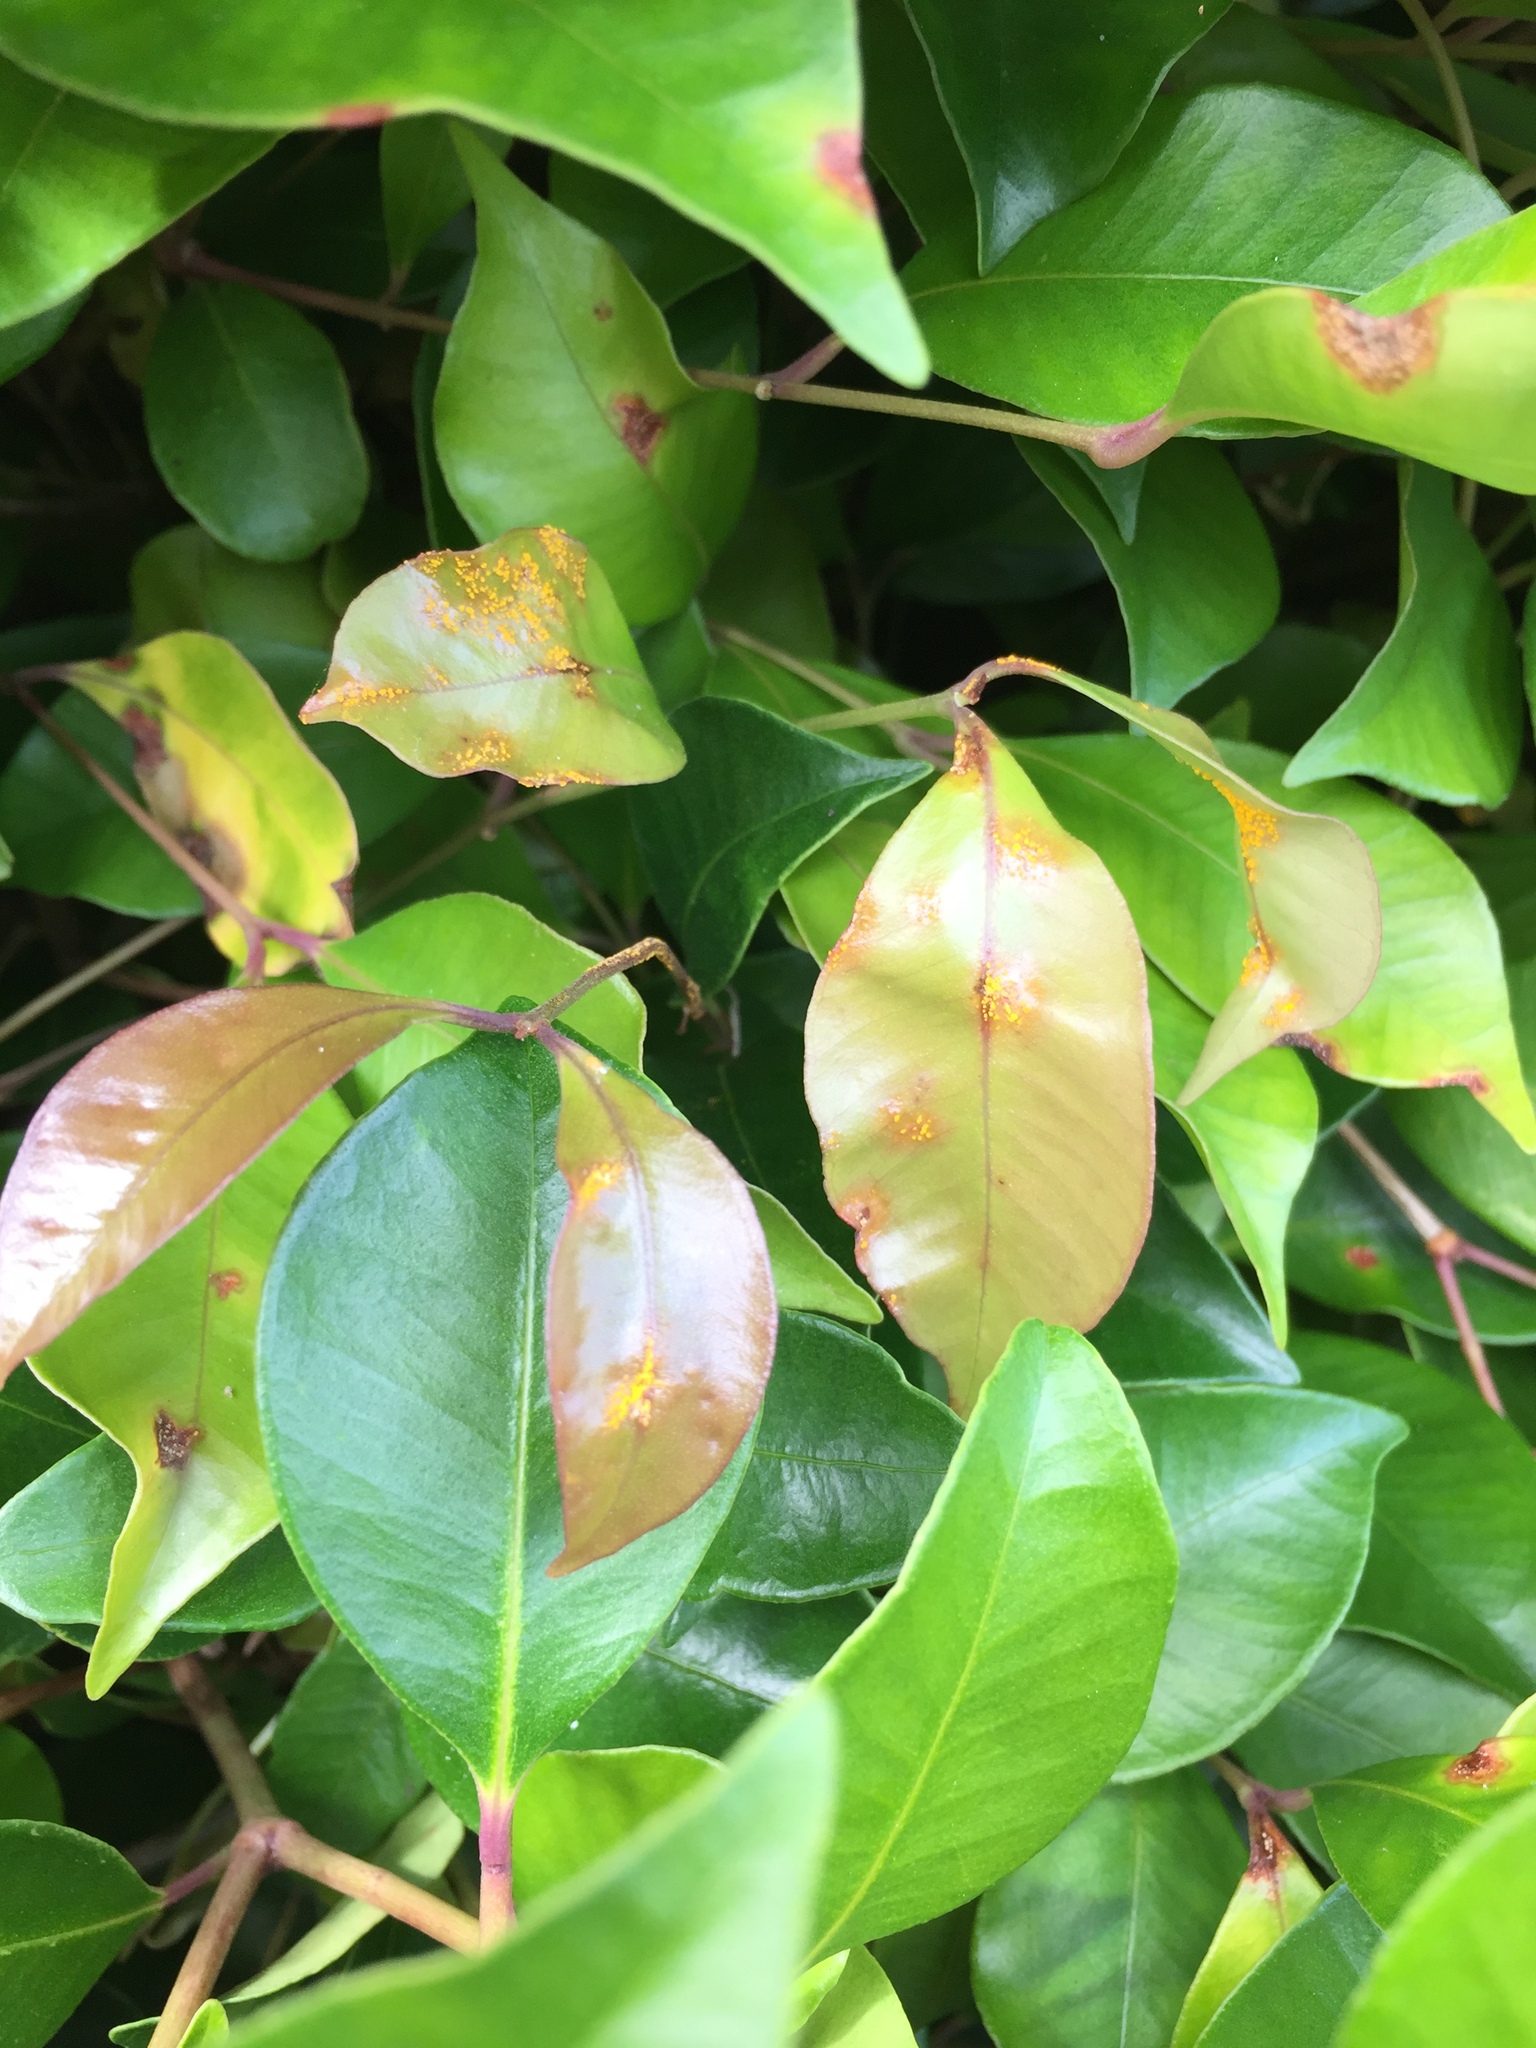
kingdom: Fungi
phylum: Basidiomycota
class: Pucciniomycetes
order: Pucciniales
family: Sphaerophragmiaceae
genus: Austropuccinia
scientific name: Austropuccinia psidii
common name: Myrtle rust
